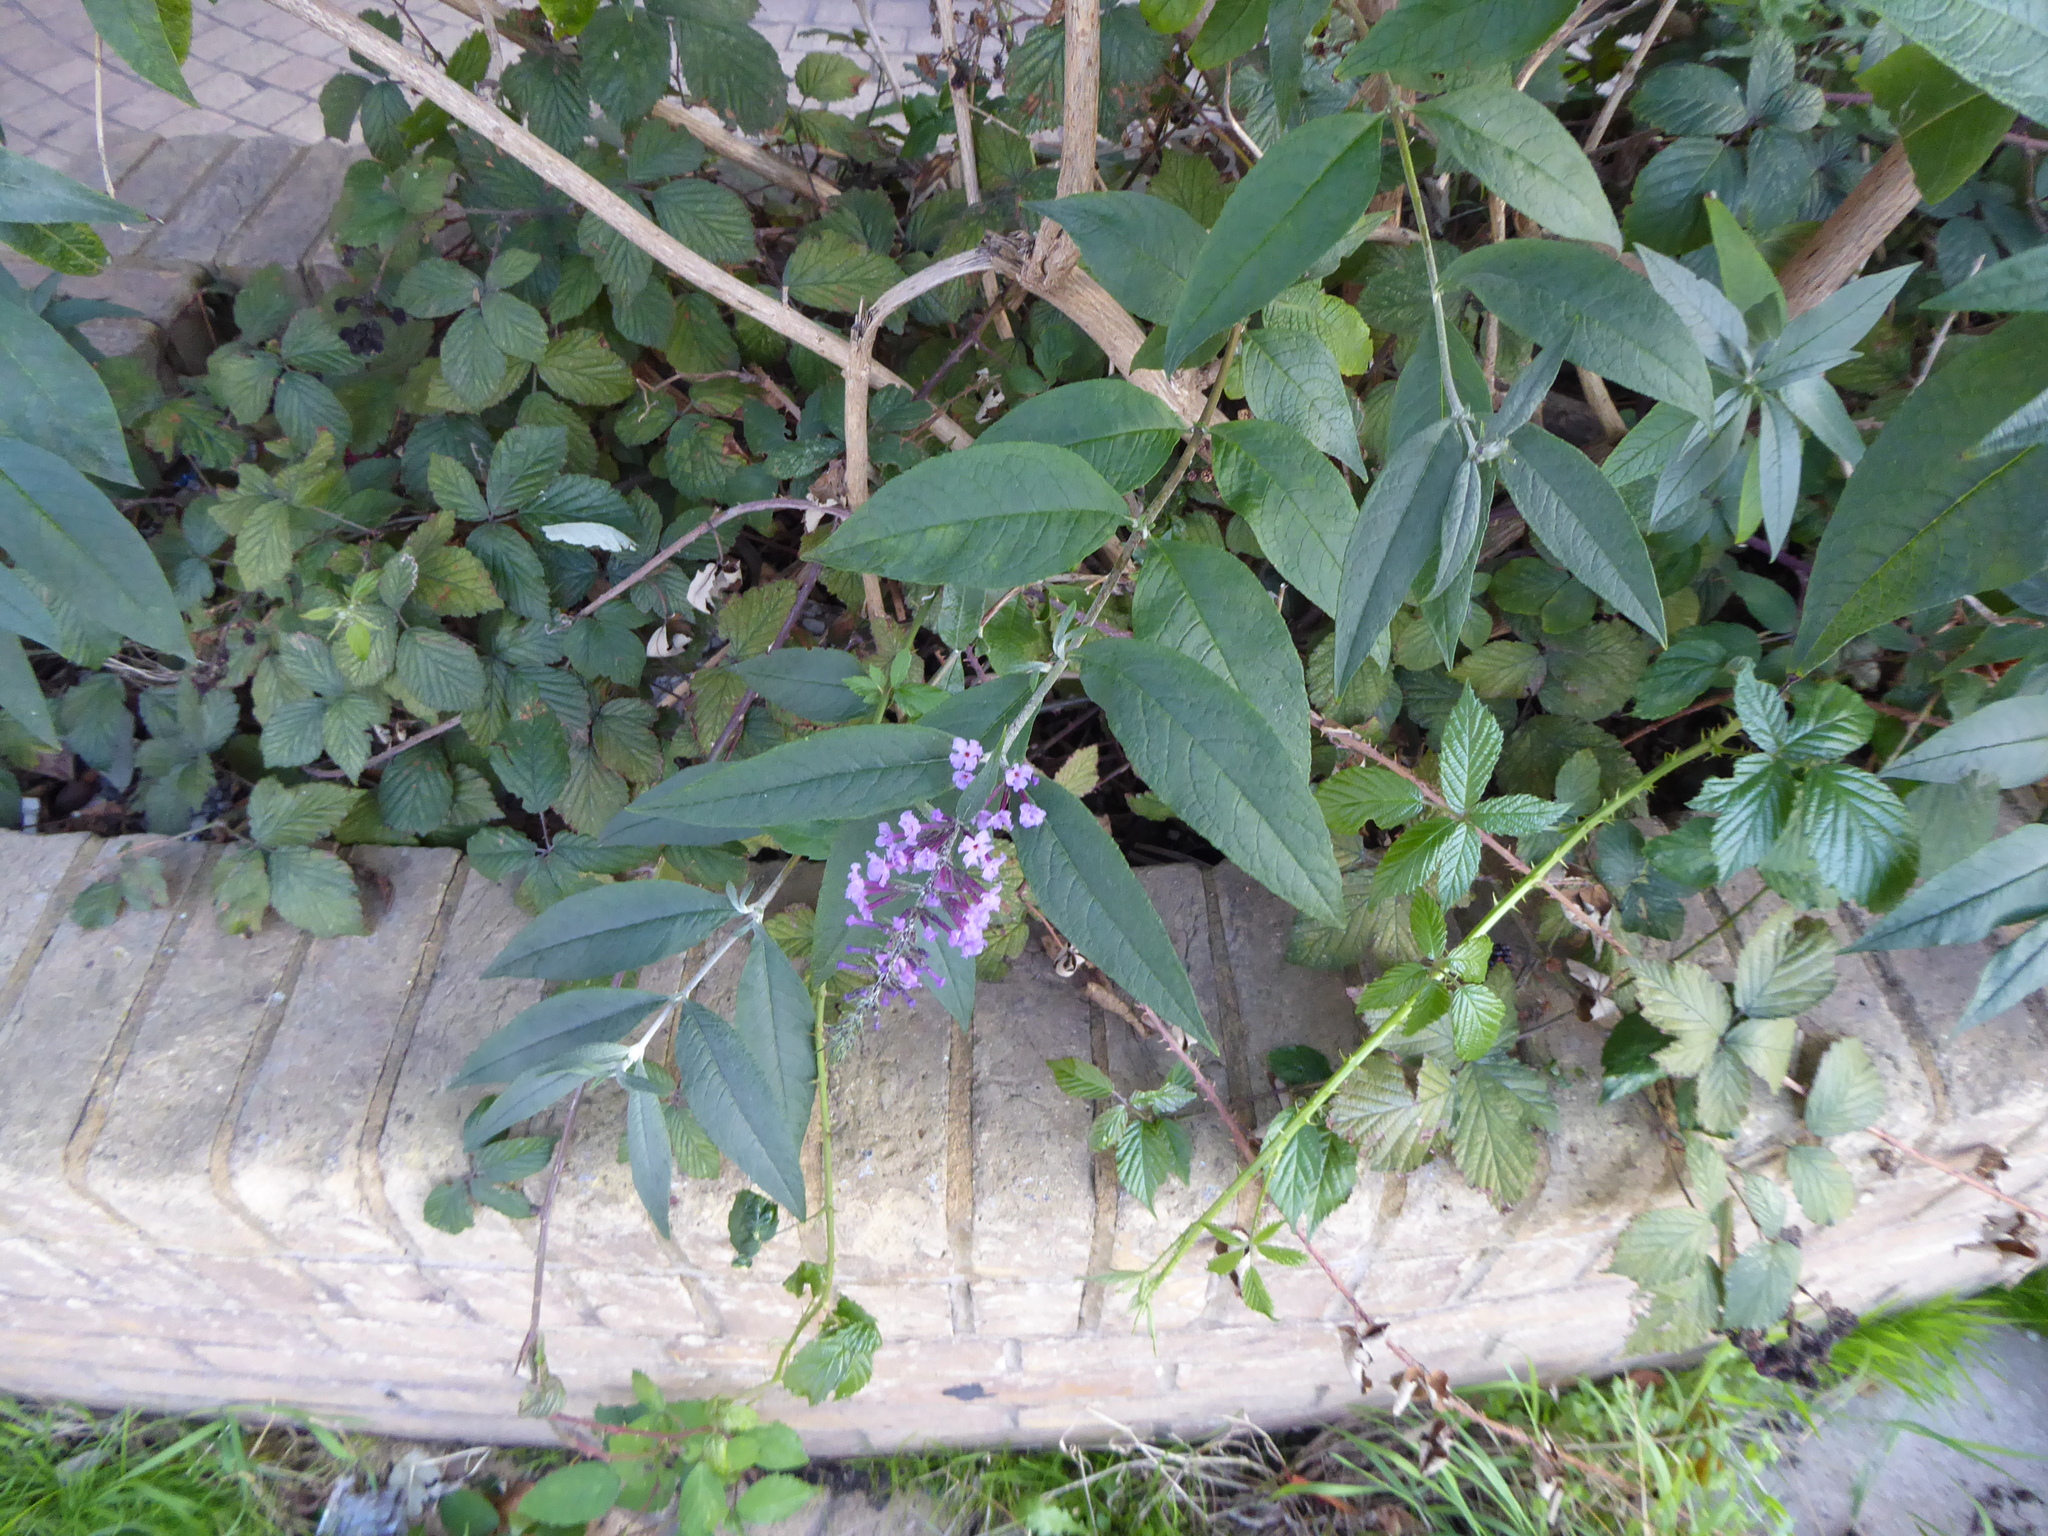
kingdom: Plantae
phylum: Tracheophyta
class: Magnoliopsida
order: Lamiales
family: Scrophulariaceae
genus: Buddleja
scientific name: Buddleja davidii
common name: Butterfly-bush
